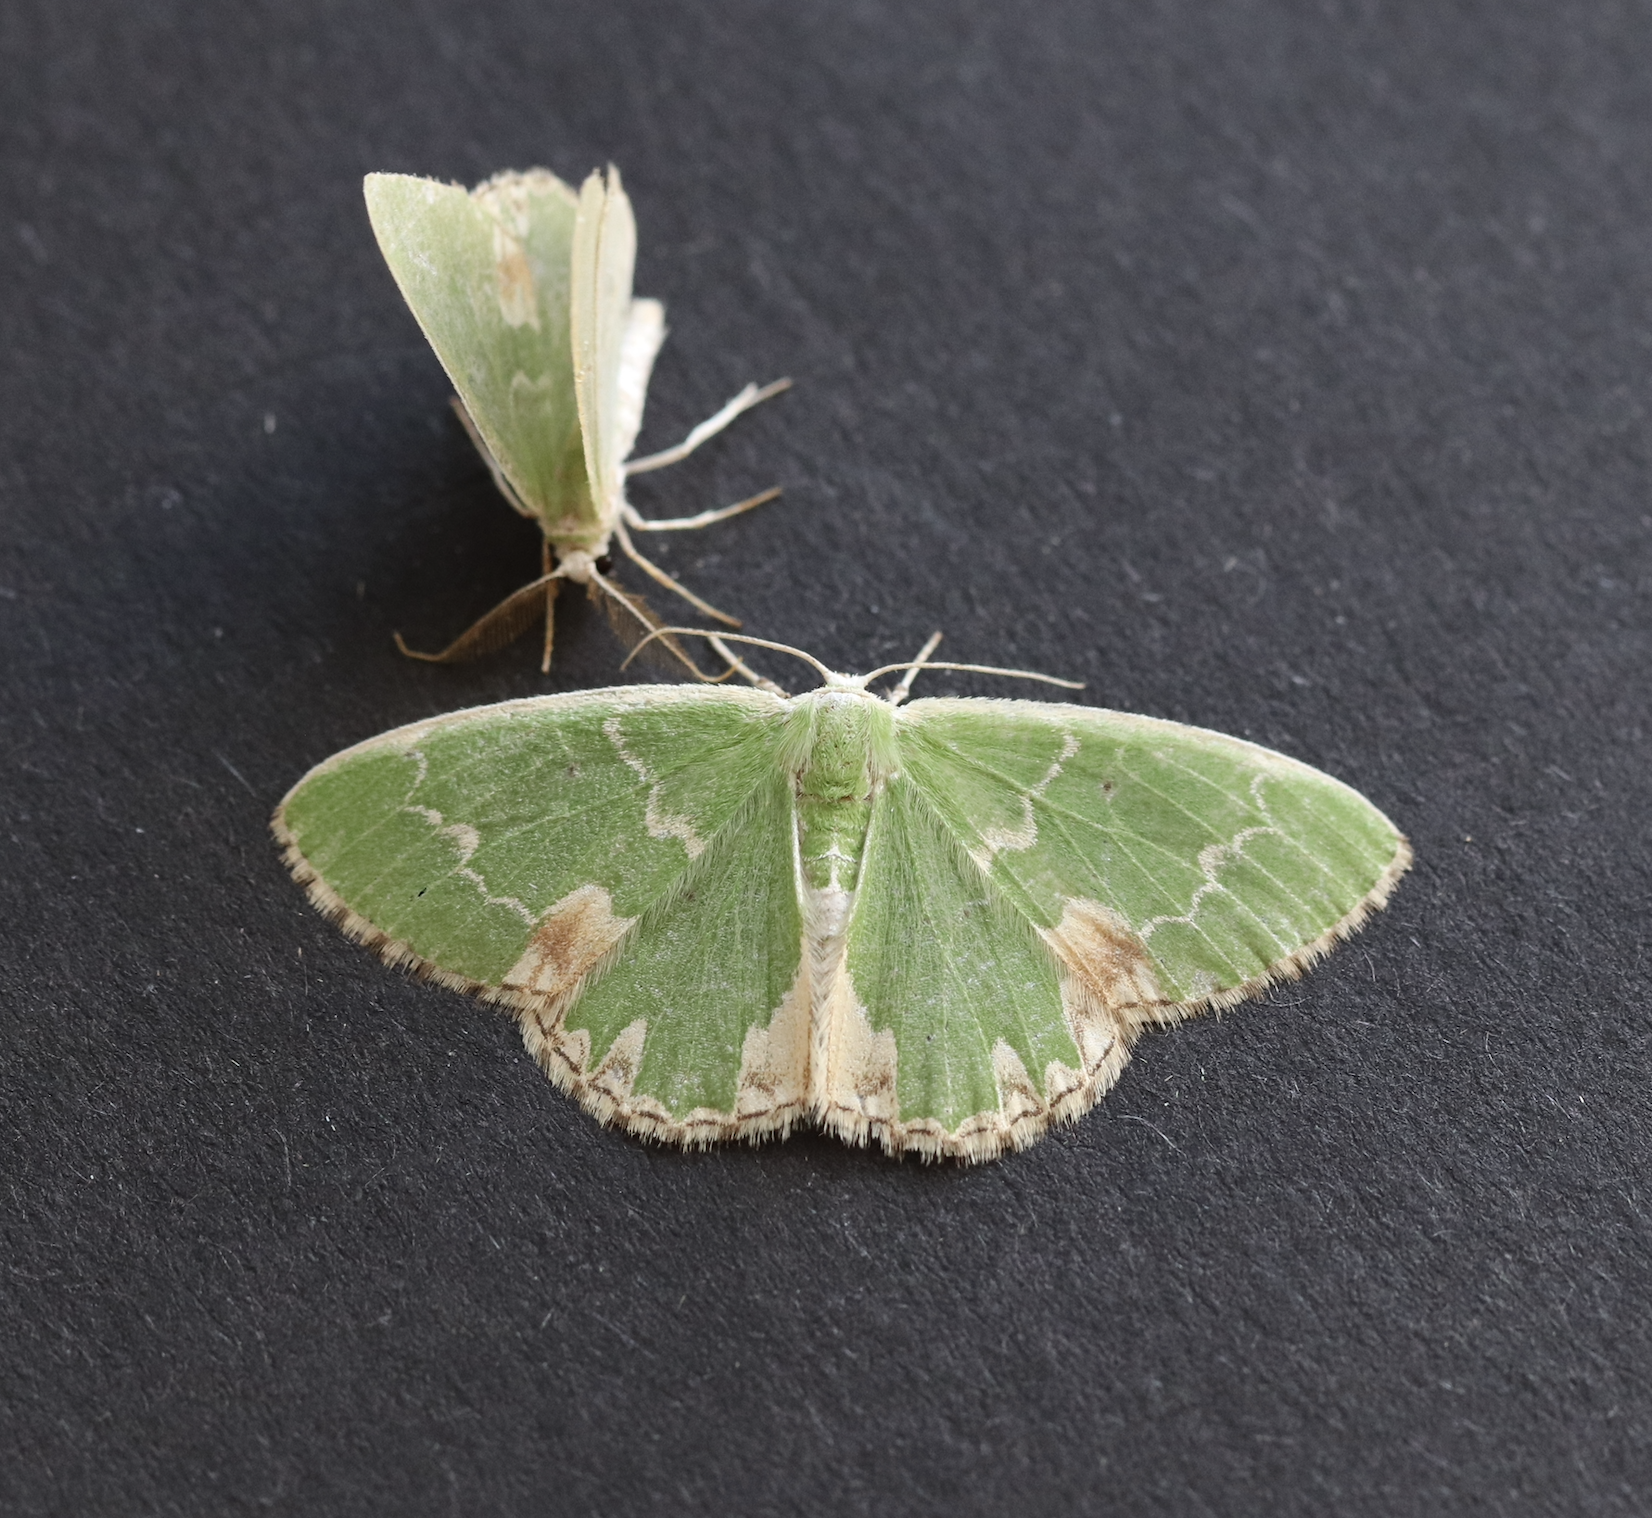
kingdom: Animalia
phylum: Arthropoda
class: Insecta
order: Lepidoptera
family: Geometridae
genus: Comibaena
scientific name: Comibaena bajularia
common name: Blotched emerald
